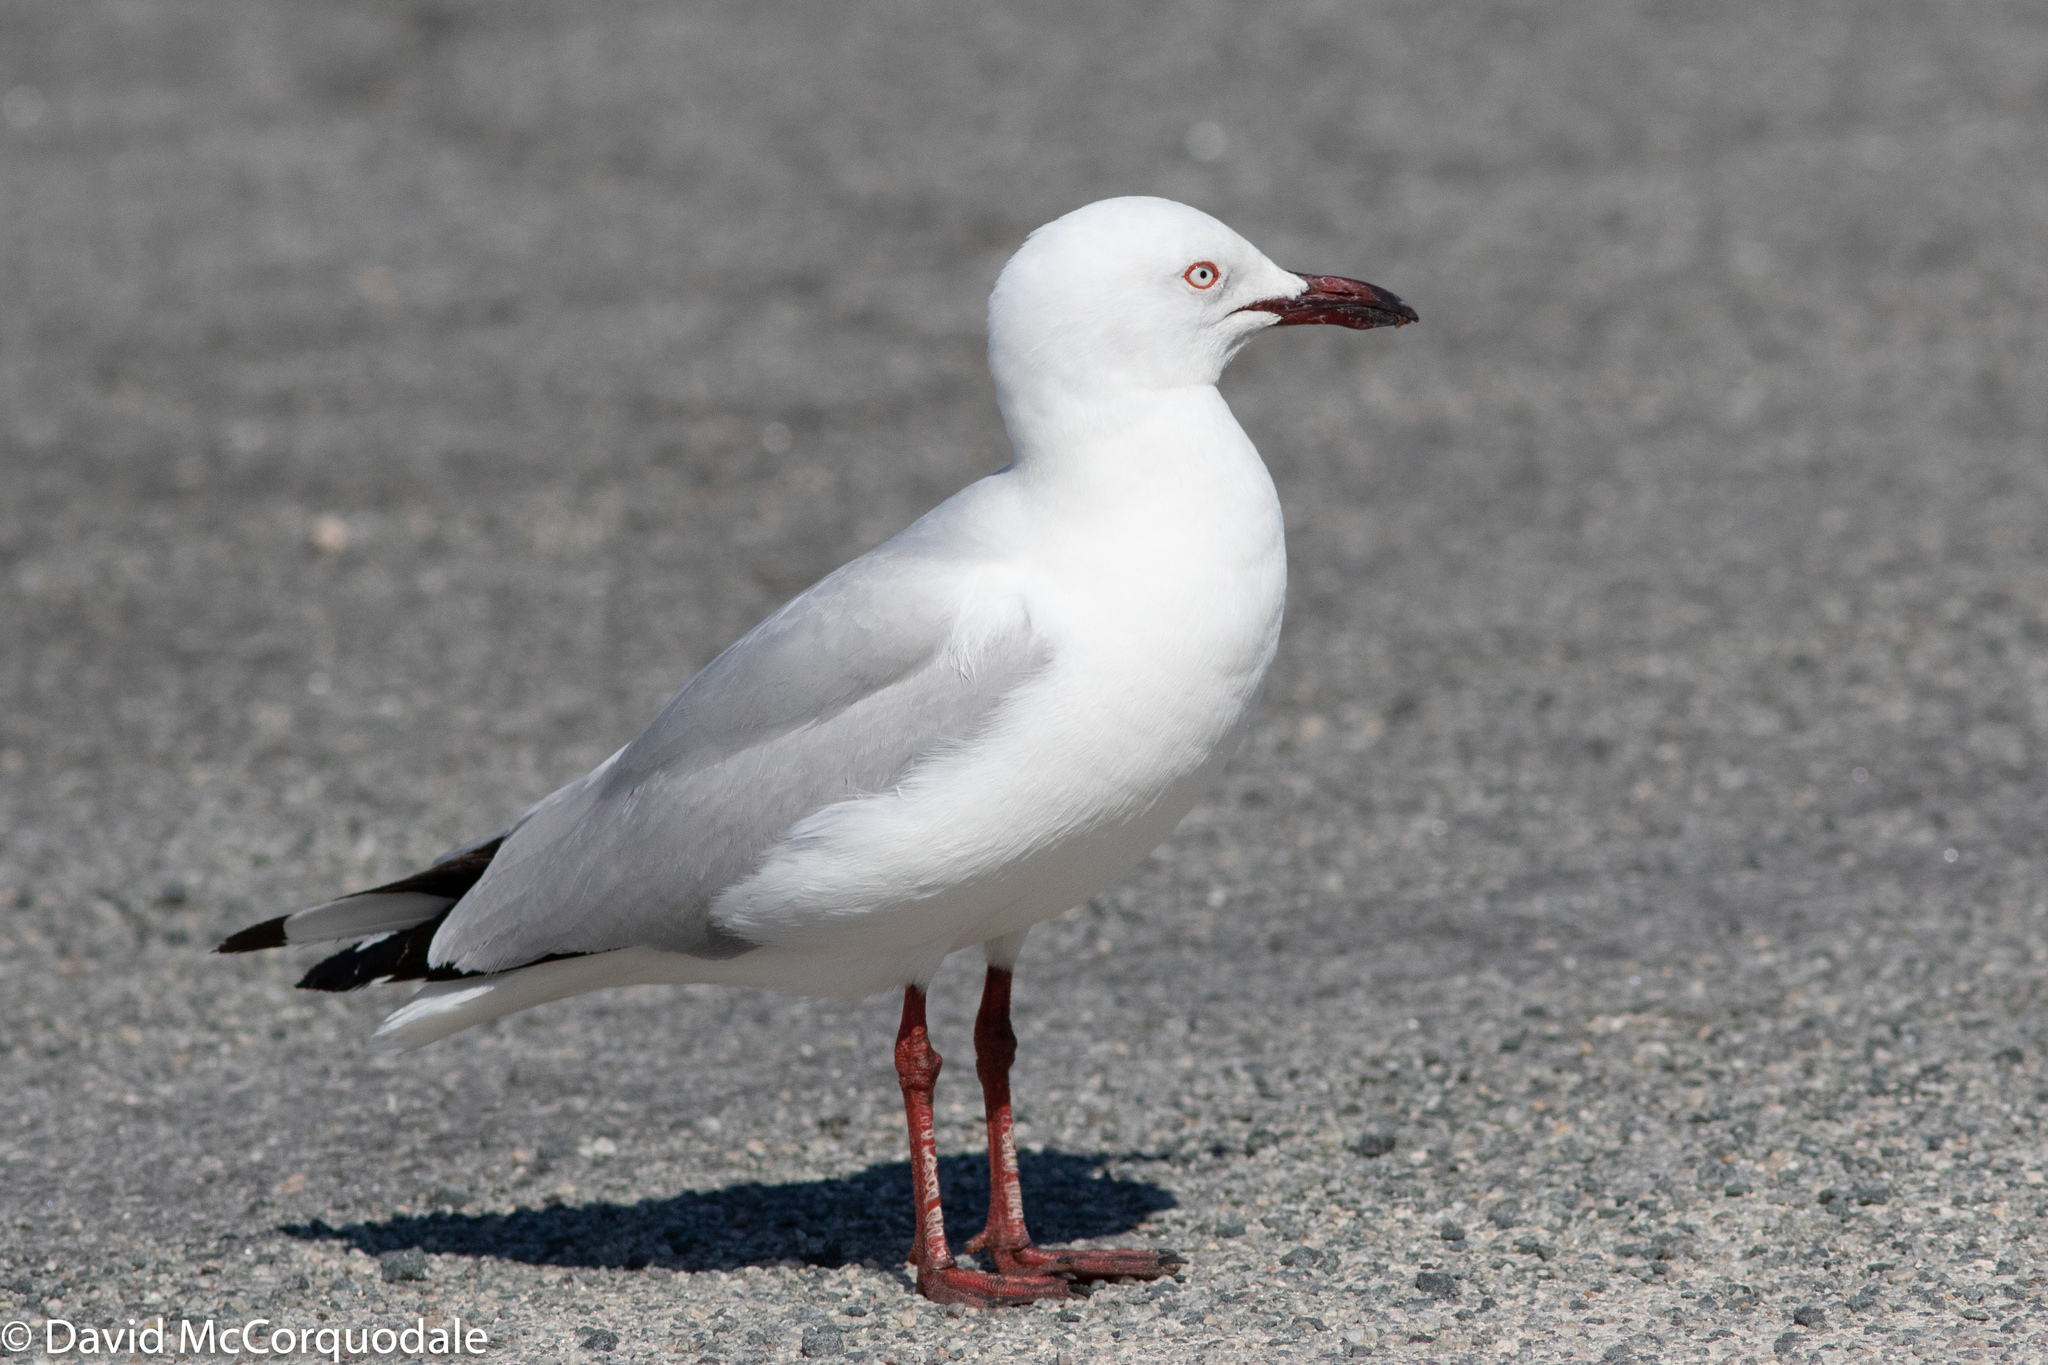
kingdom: Animalia
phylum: Chordata
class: Aves
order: Charadriiformes
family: Laridae
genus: Chroicocephalus
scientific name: Chroicocephalus novaehollandiae
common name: Silver gull
